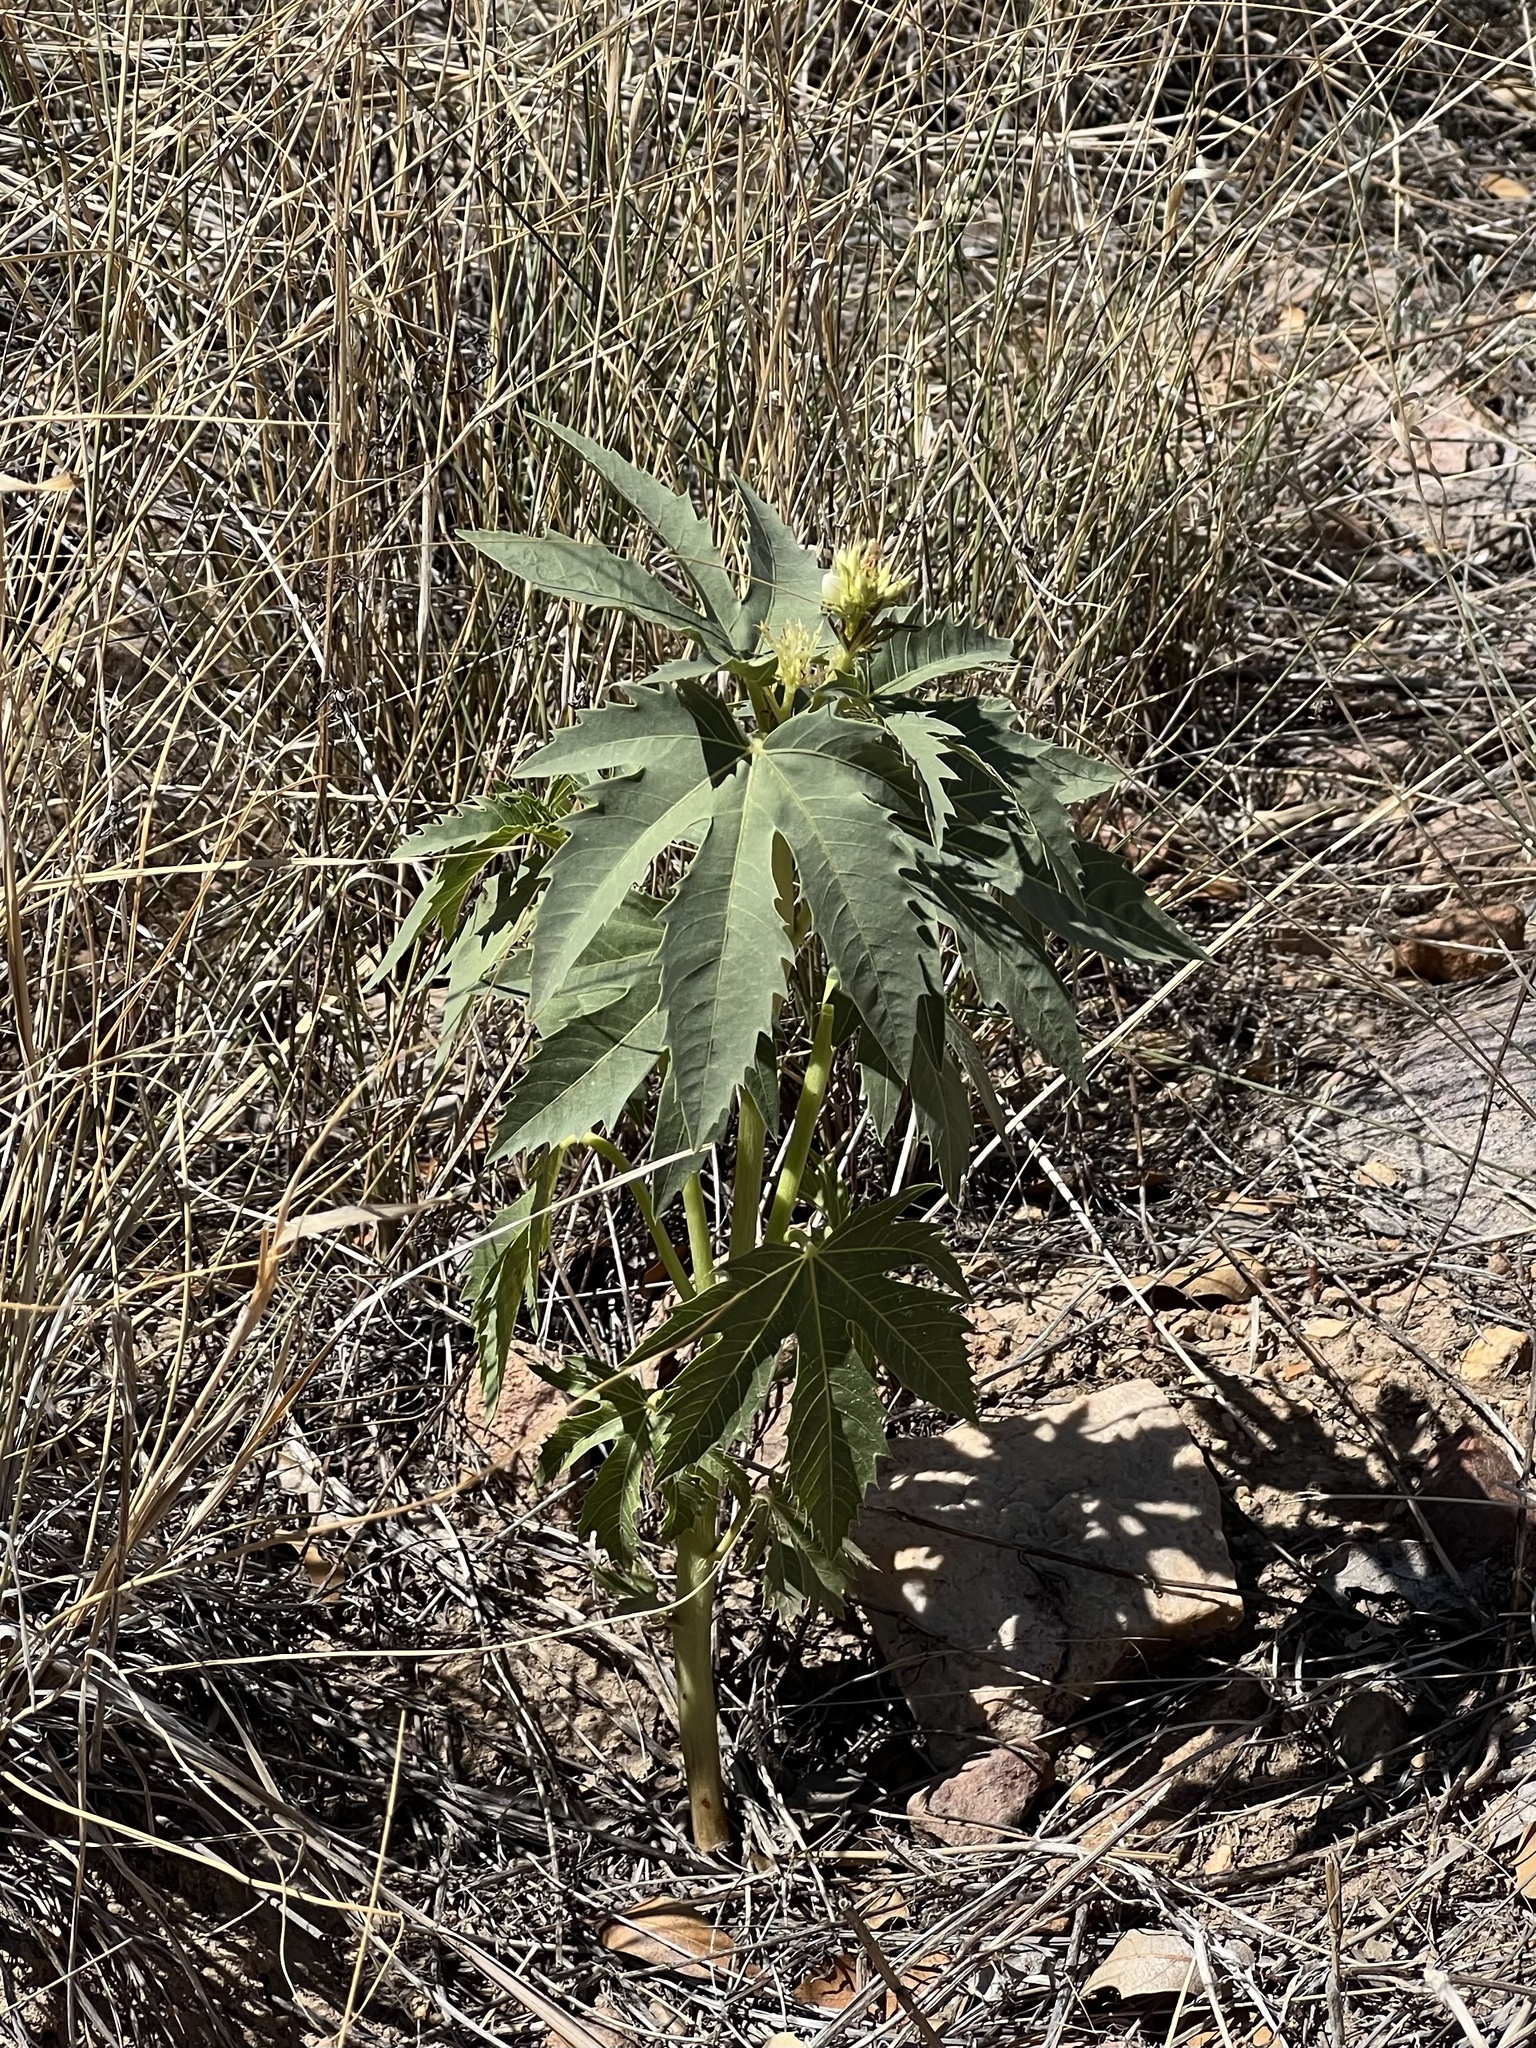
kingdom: Plantae
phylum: Tracheophyta
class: Magnoliopsida
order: Malpighiales
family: Euphorbiaceae
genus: Jatropha
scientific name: Jatropha macrorhiza
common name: Ragged nettlespurge
